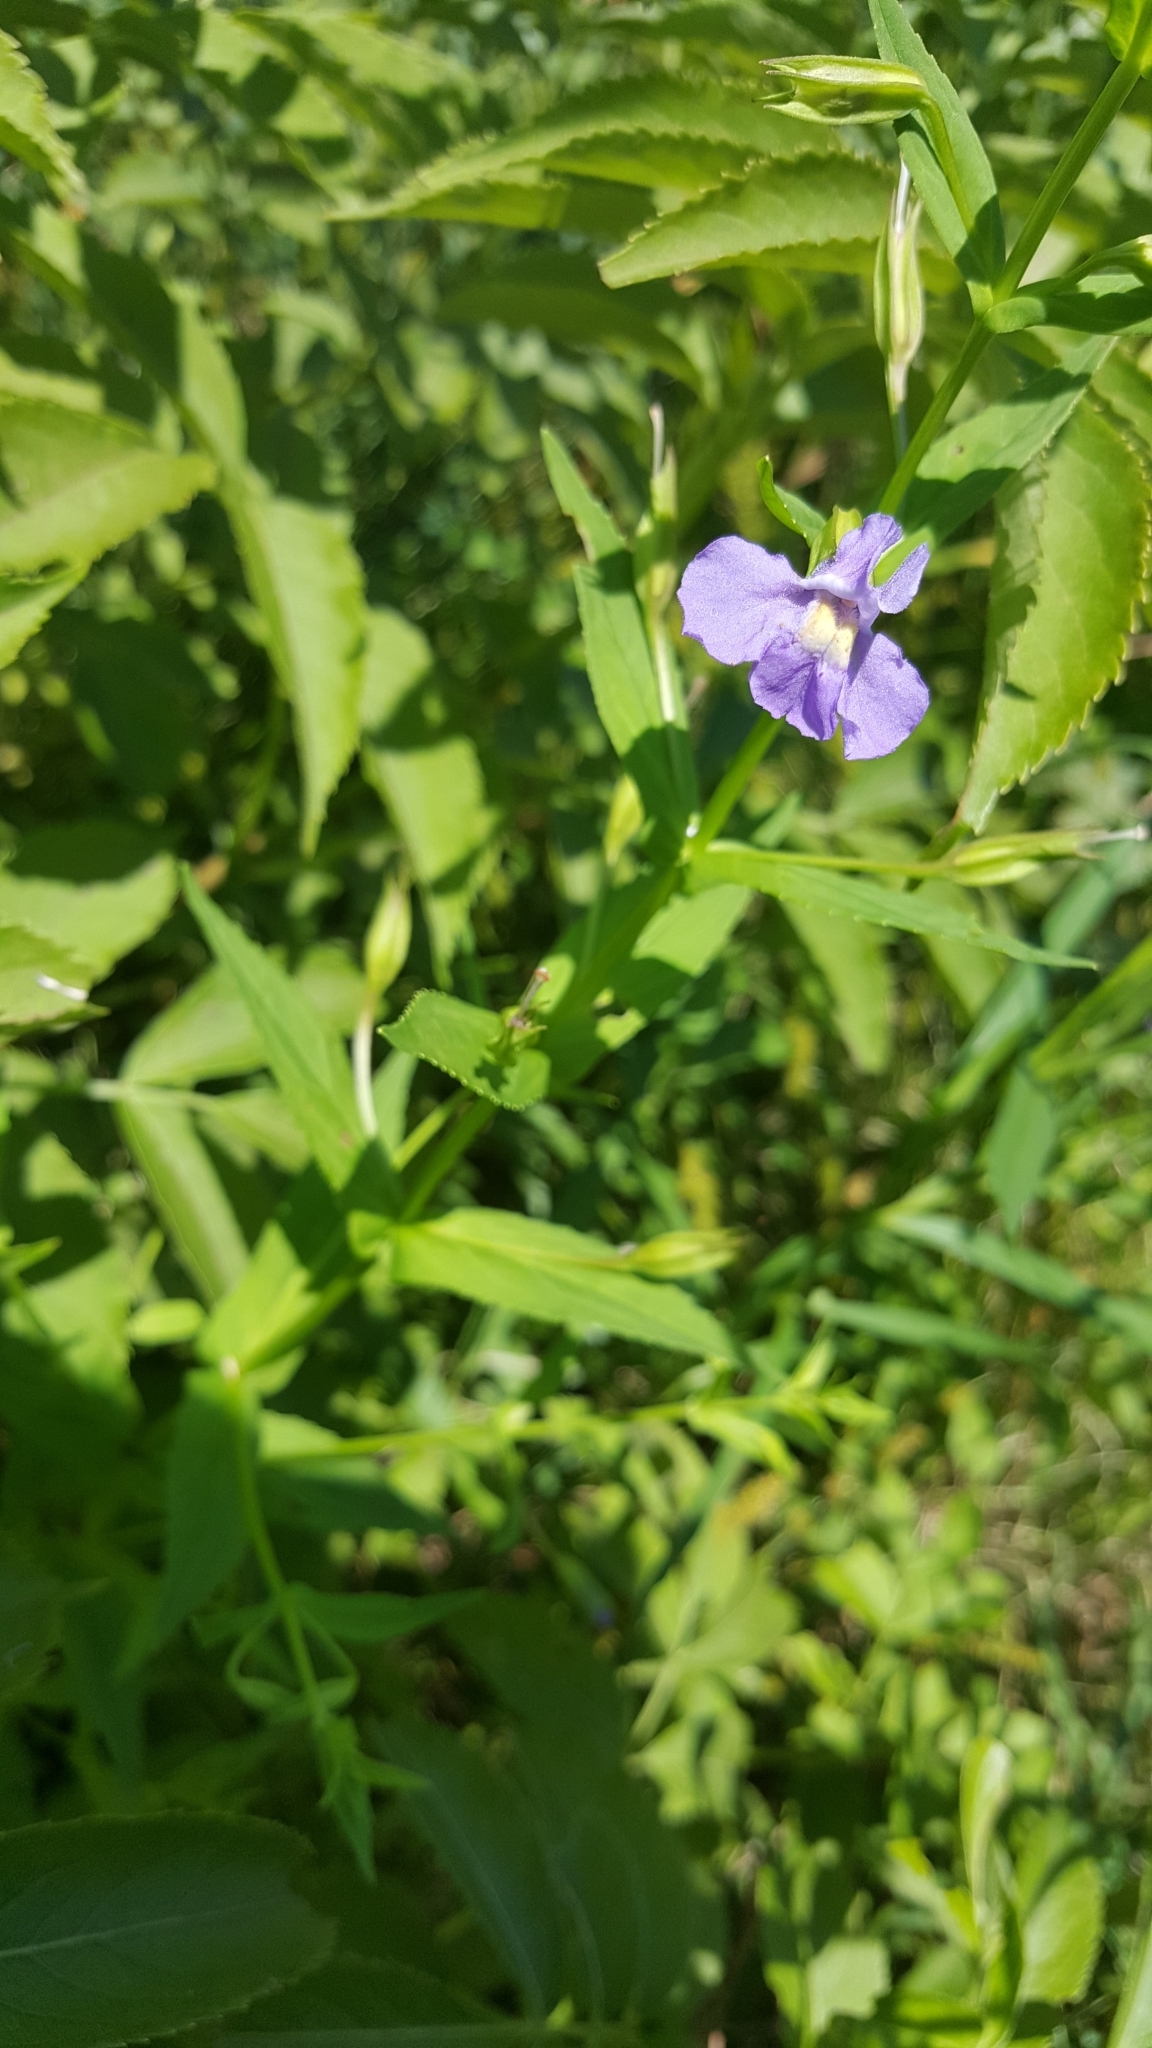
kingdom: Plantae
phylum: Tracheophyta
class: Magnoliopsida
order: Lamiales
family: Phrymaceae
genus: Mimulus
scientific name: Mimulus ringens
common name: Allegheny monkeyflower
